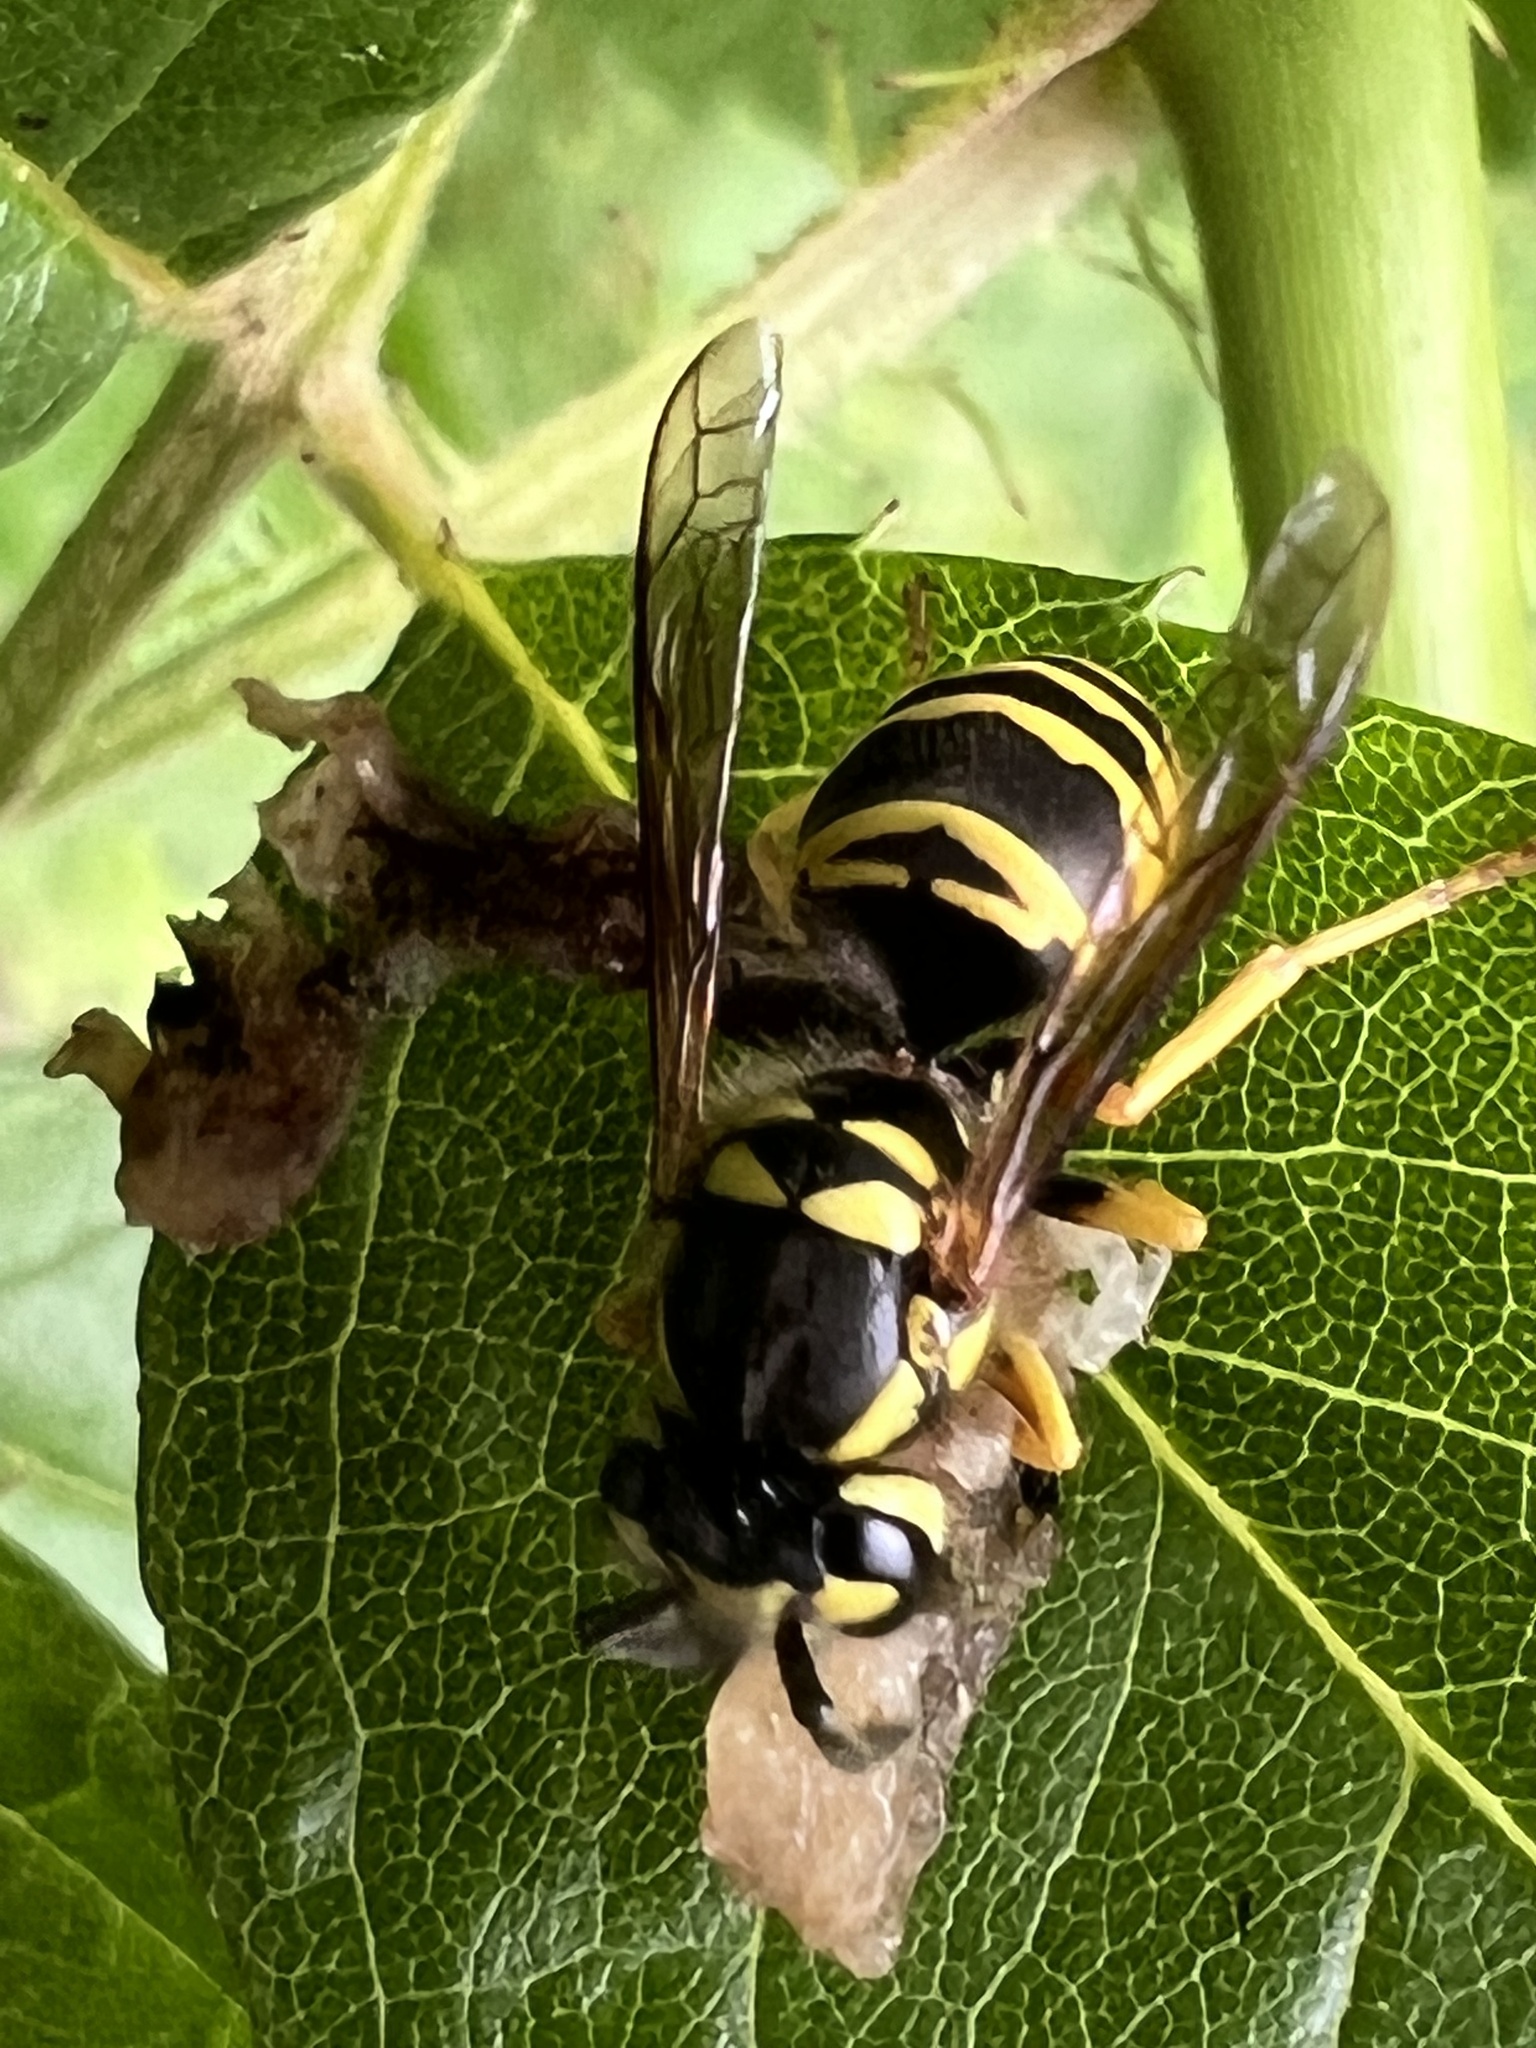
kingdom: Animalia
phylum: Arthropoda
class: Insecta
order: Hymenoptera
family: Vespidae
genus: Vespula
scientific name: Vespula maculifrons
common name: Eastern yellowjacket
